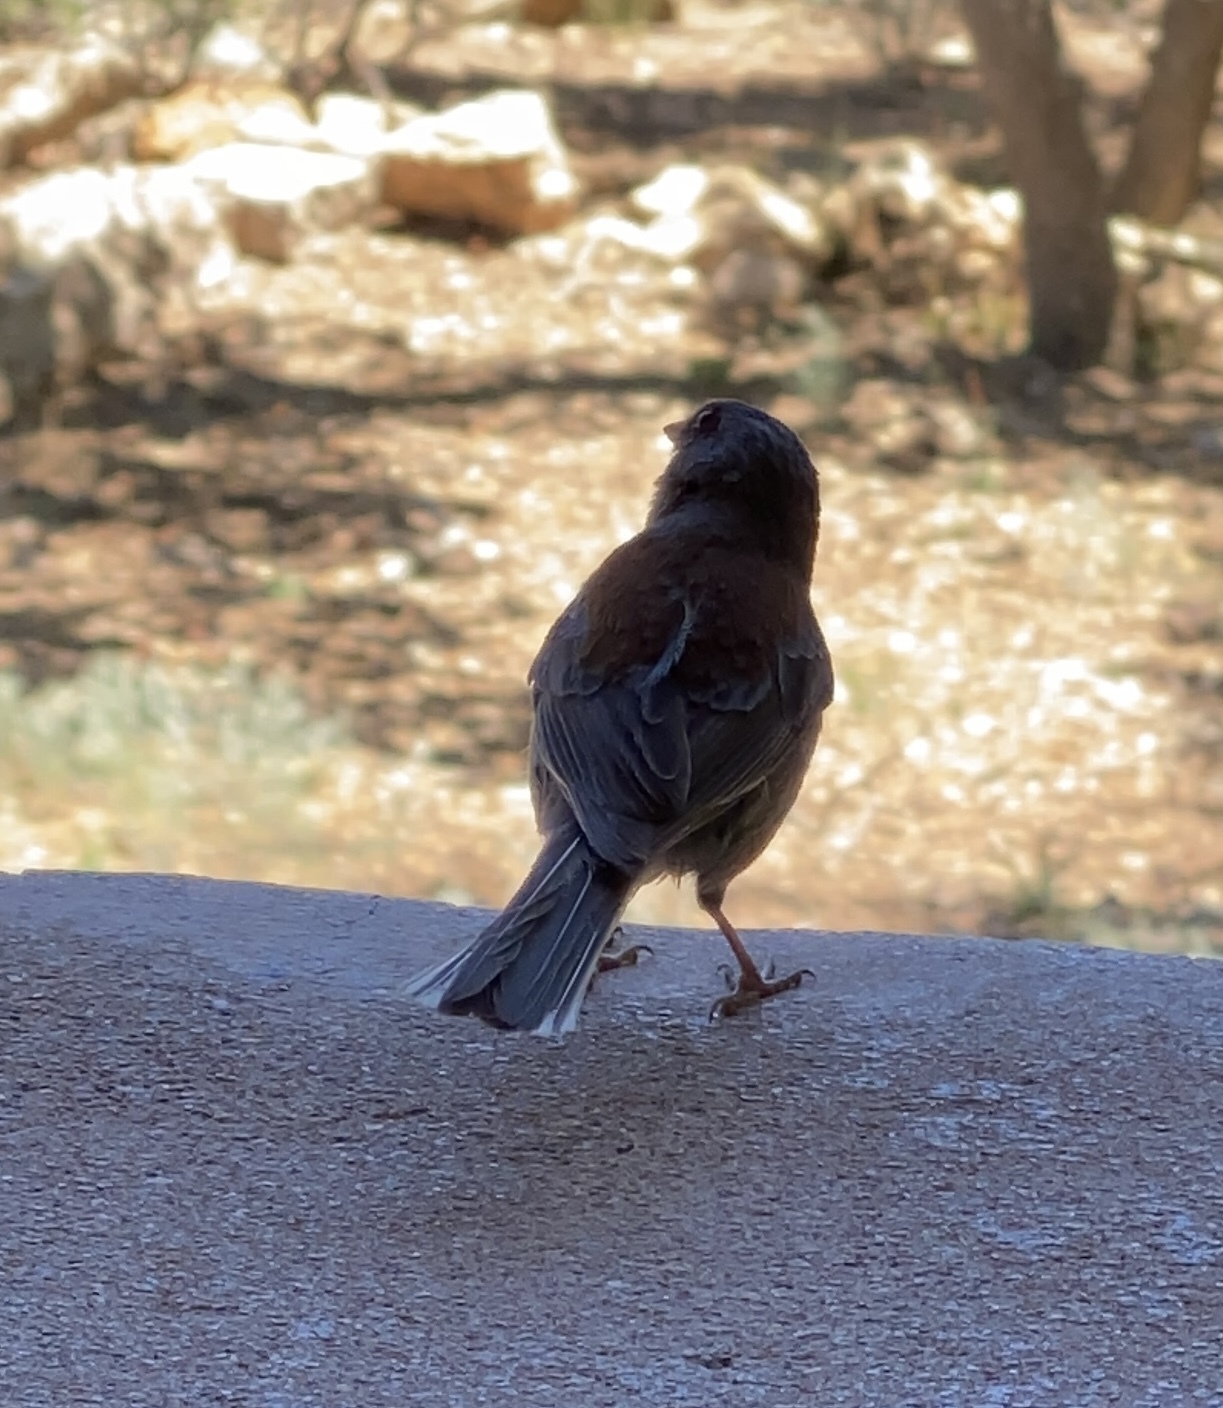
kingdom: Animalia
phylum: Chordata
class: Aves
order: Passeriformes
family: Passerellidae
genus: Junco
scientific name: Junco hyemalis
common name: Dark-eyed junco
